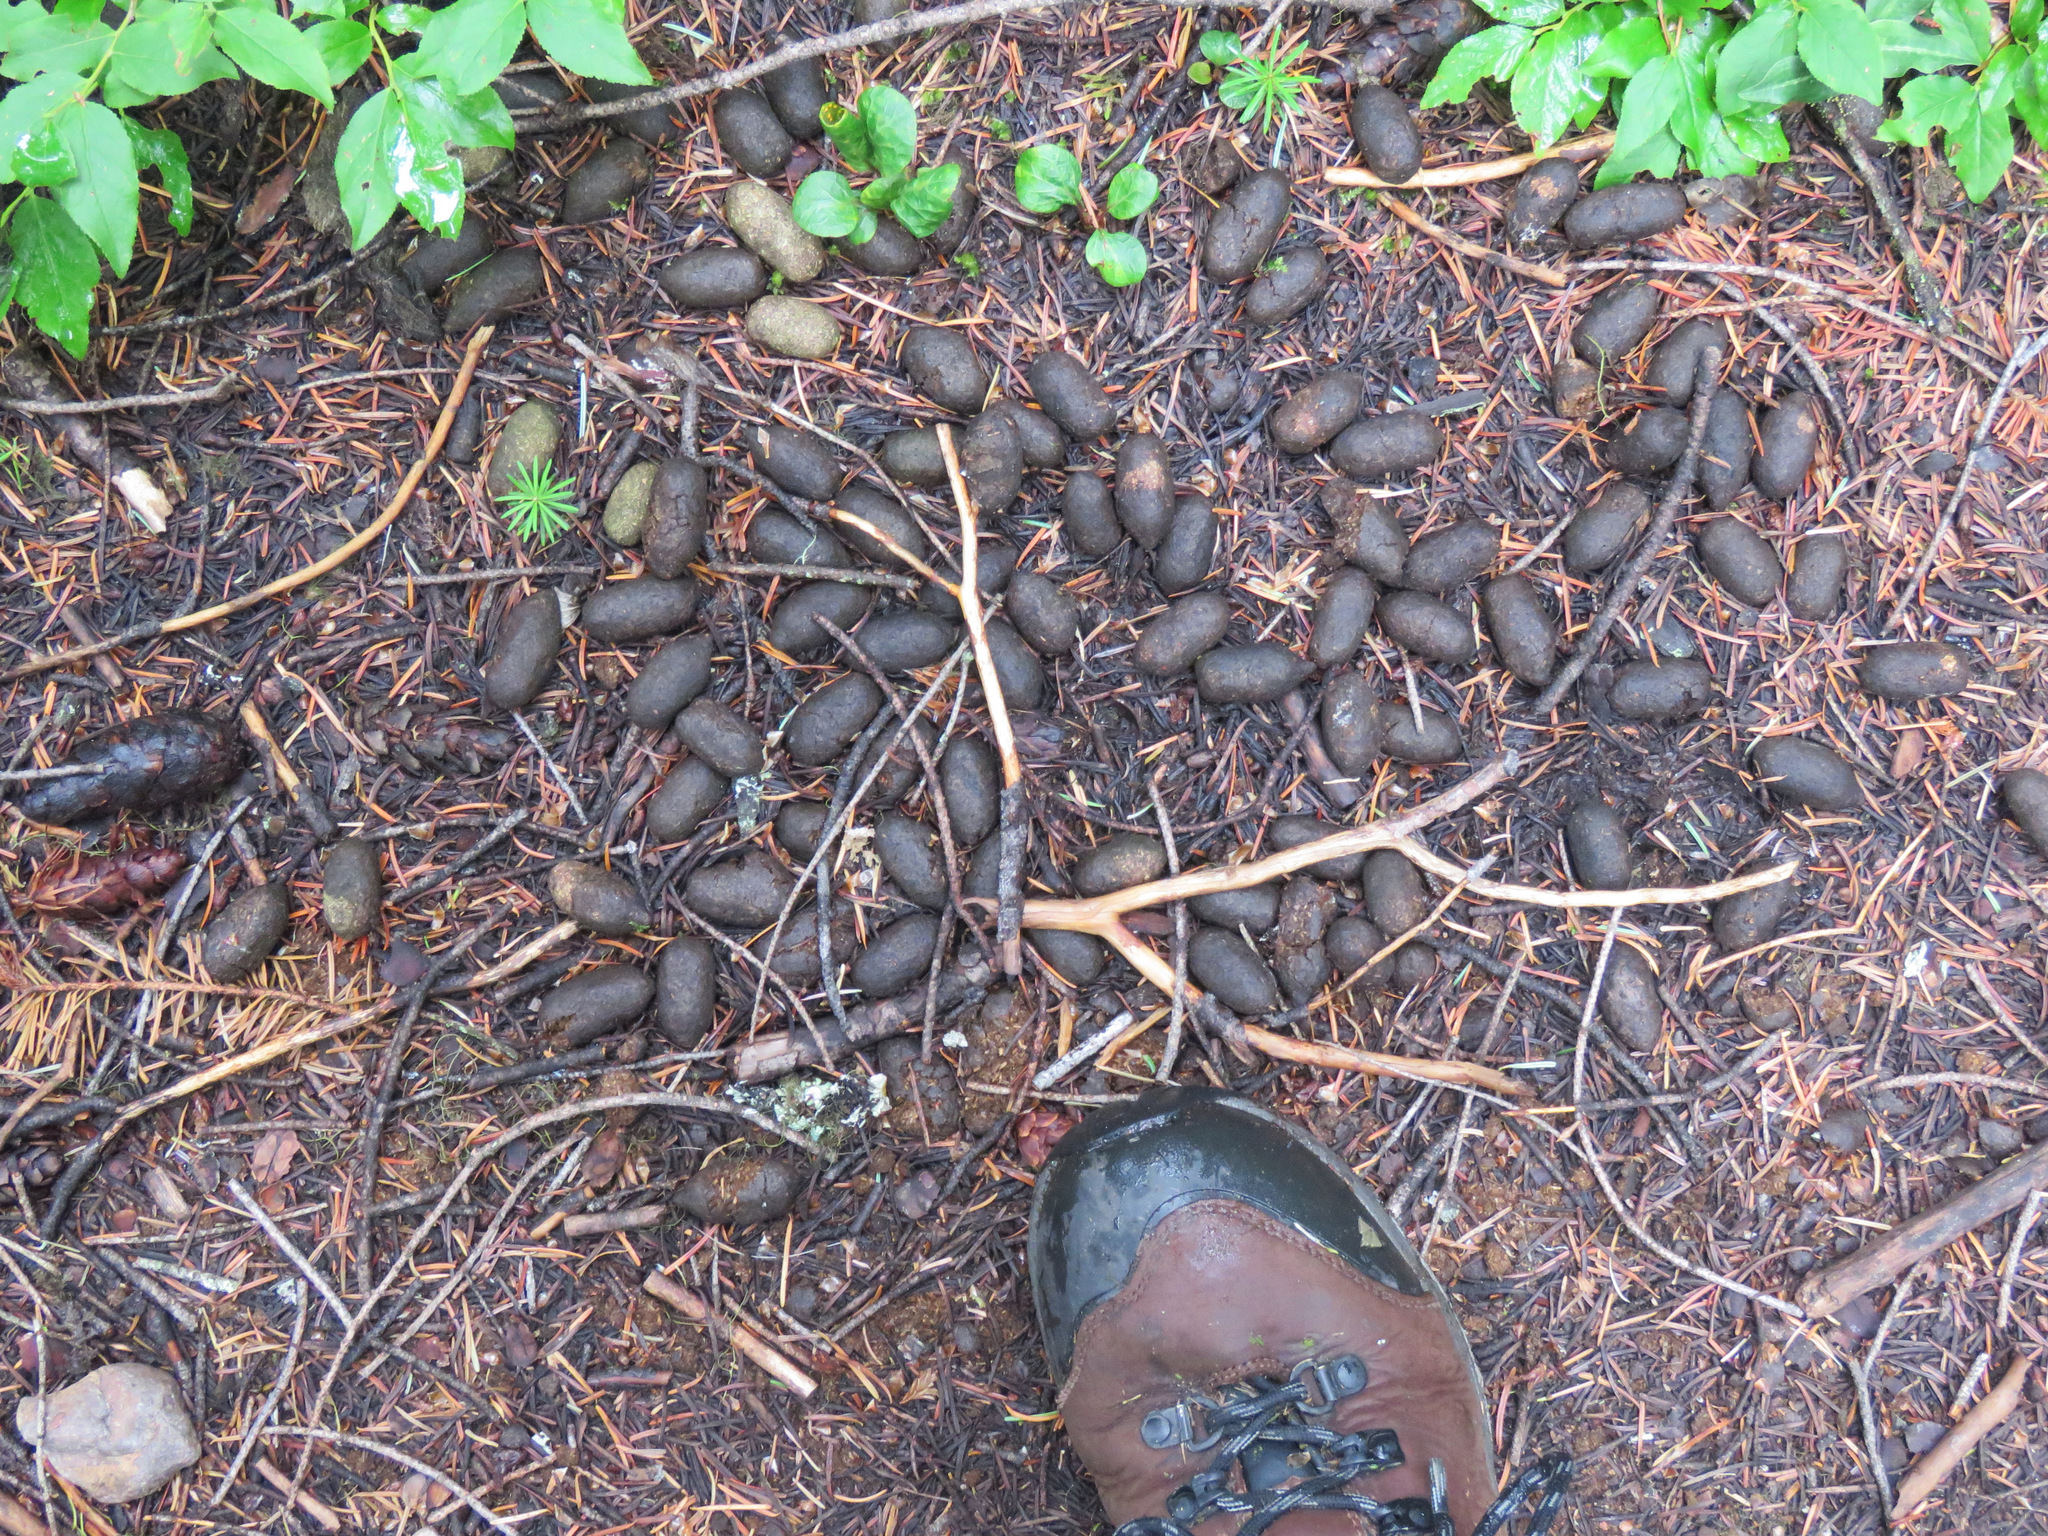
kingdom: Animalia
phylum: Chordata
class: Mammalia
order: Artiodactyla
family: Cervidae
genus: Alces
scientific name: Alces alces
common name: Moose
